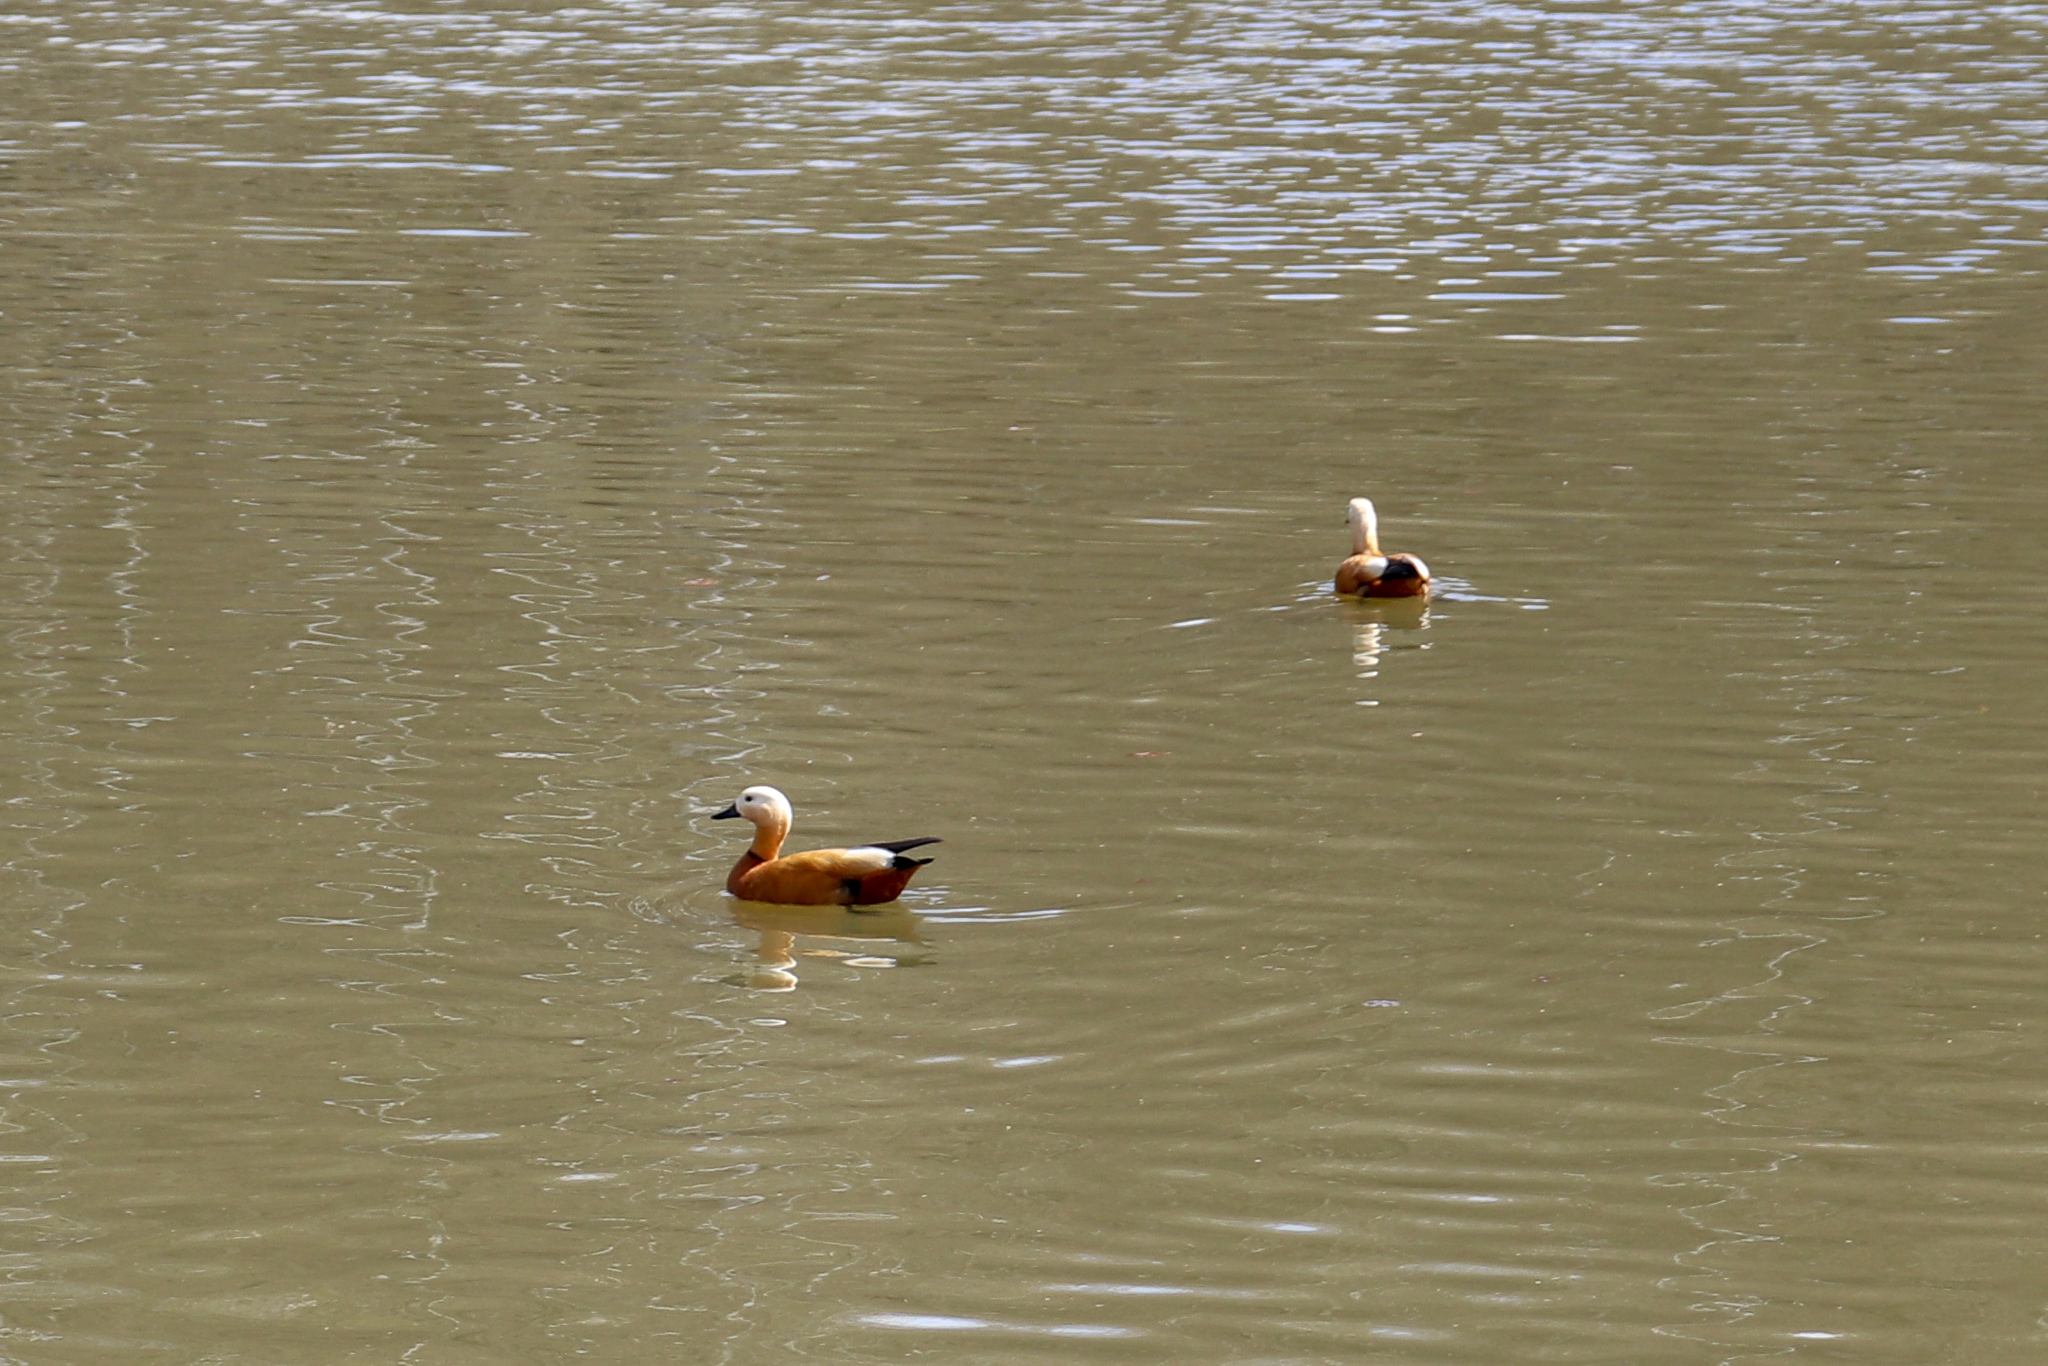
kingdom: Animalia
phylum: Chordata
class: Aves
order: Anseriformes
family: Anatidae
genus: Tadorna
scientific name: Tadorna ferruginea
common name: Ruddy shelduck
